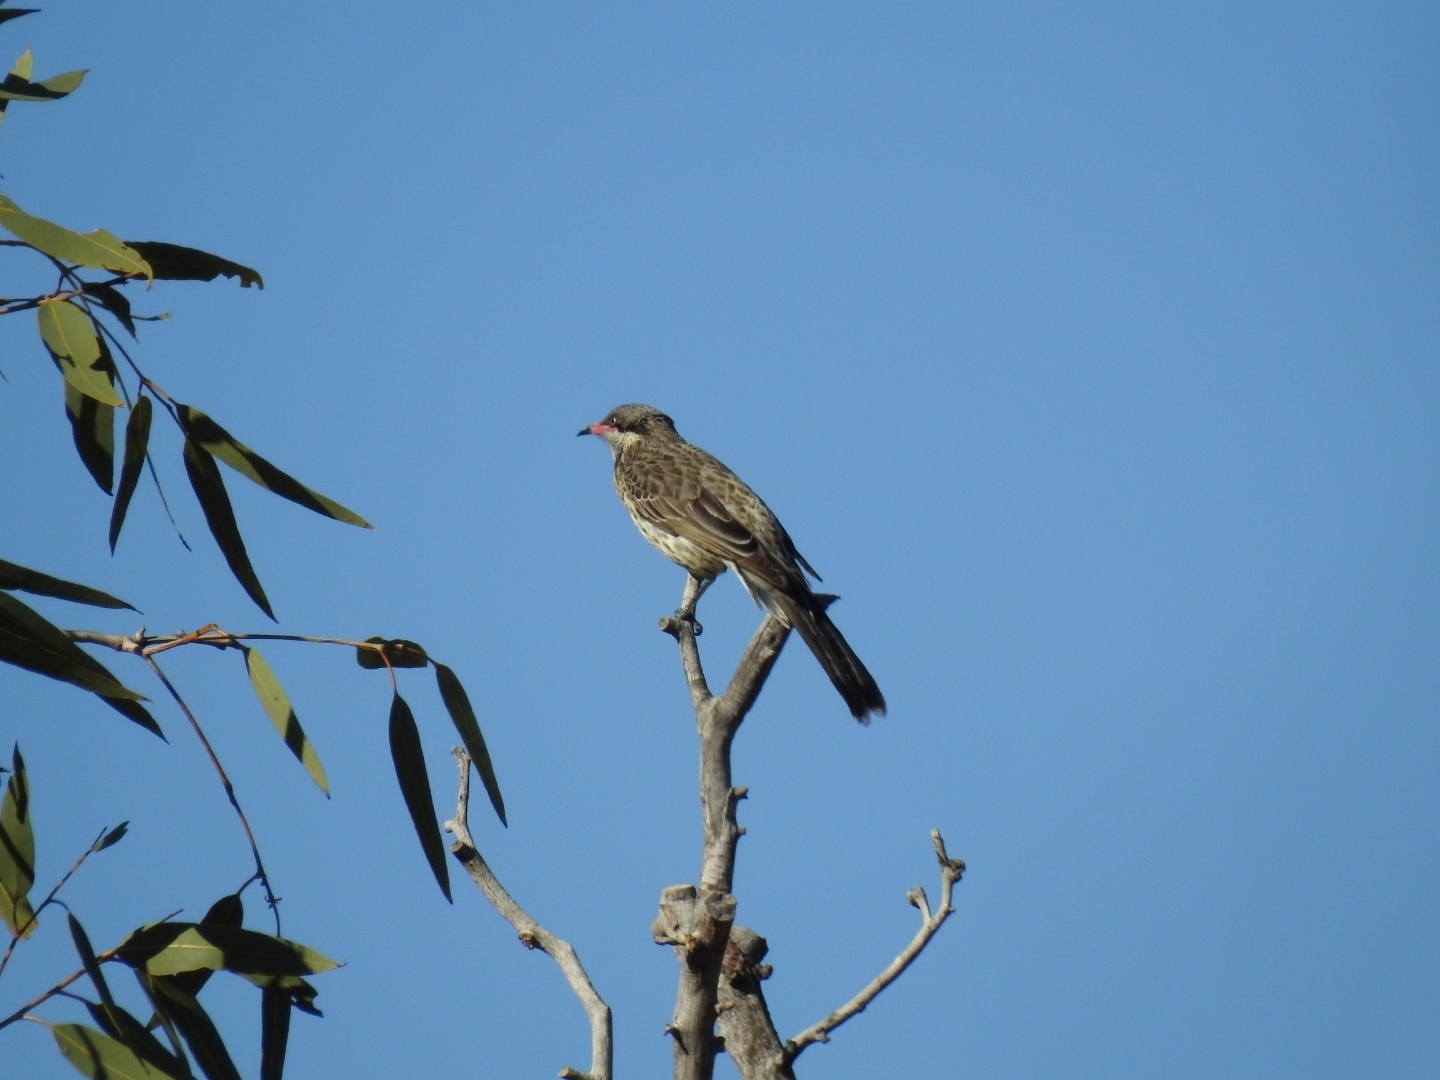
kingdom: Animalia
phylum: Chordata
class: Aves
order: Passeriformes
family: Meliphagidae
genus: Acanthagenys
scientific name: Acanthagenys rufogularis
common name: Spiny-cheeked honeyeater
